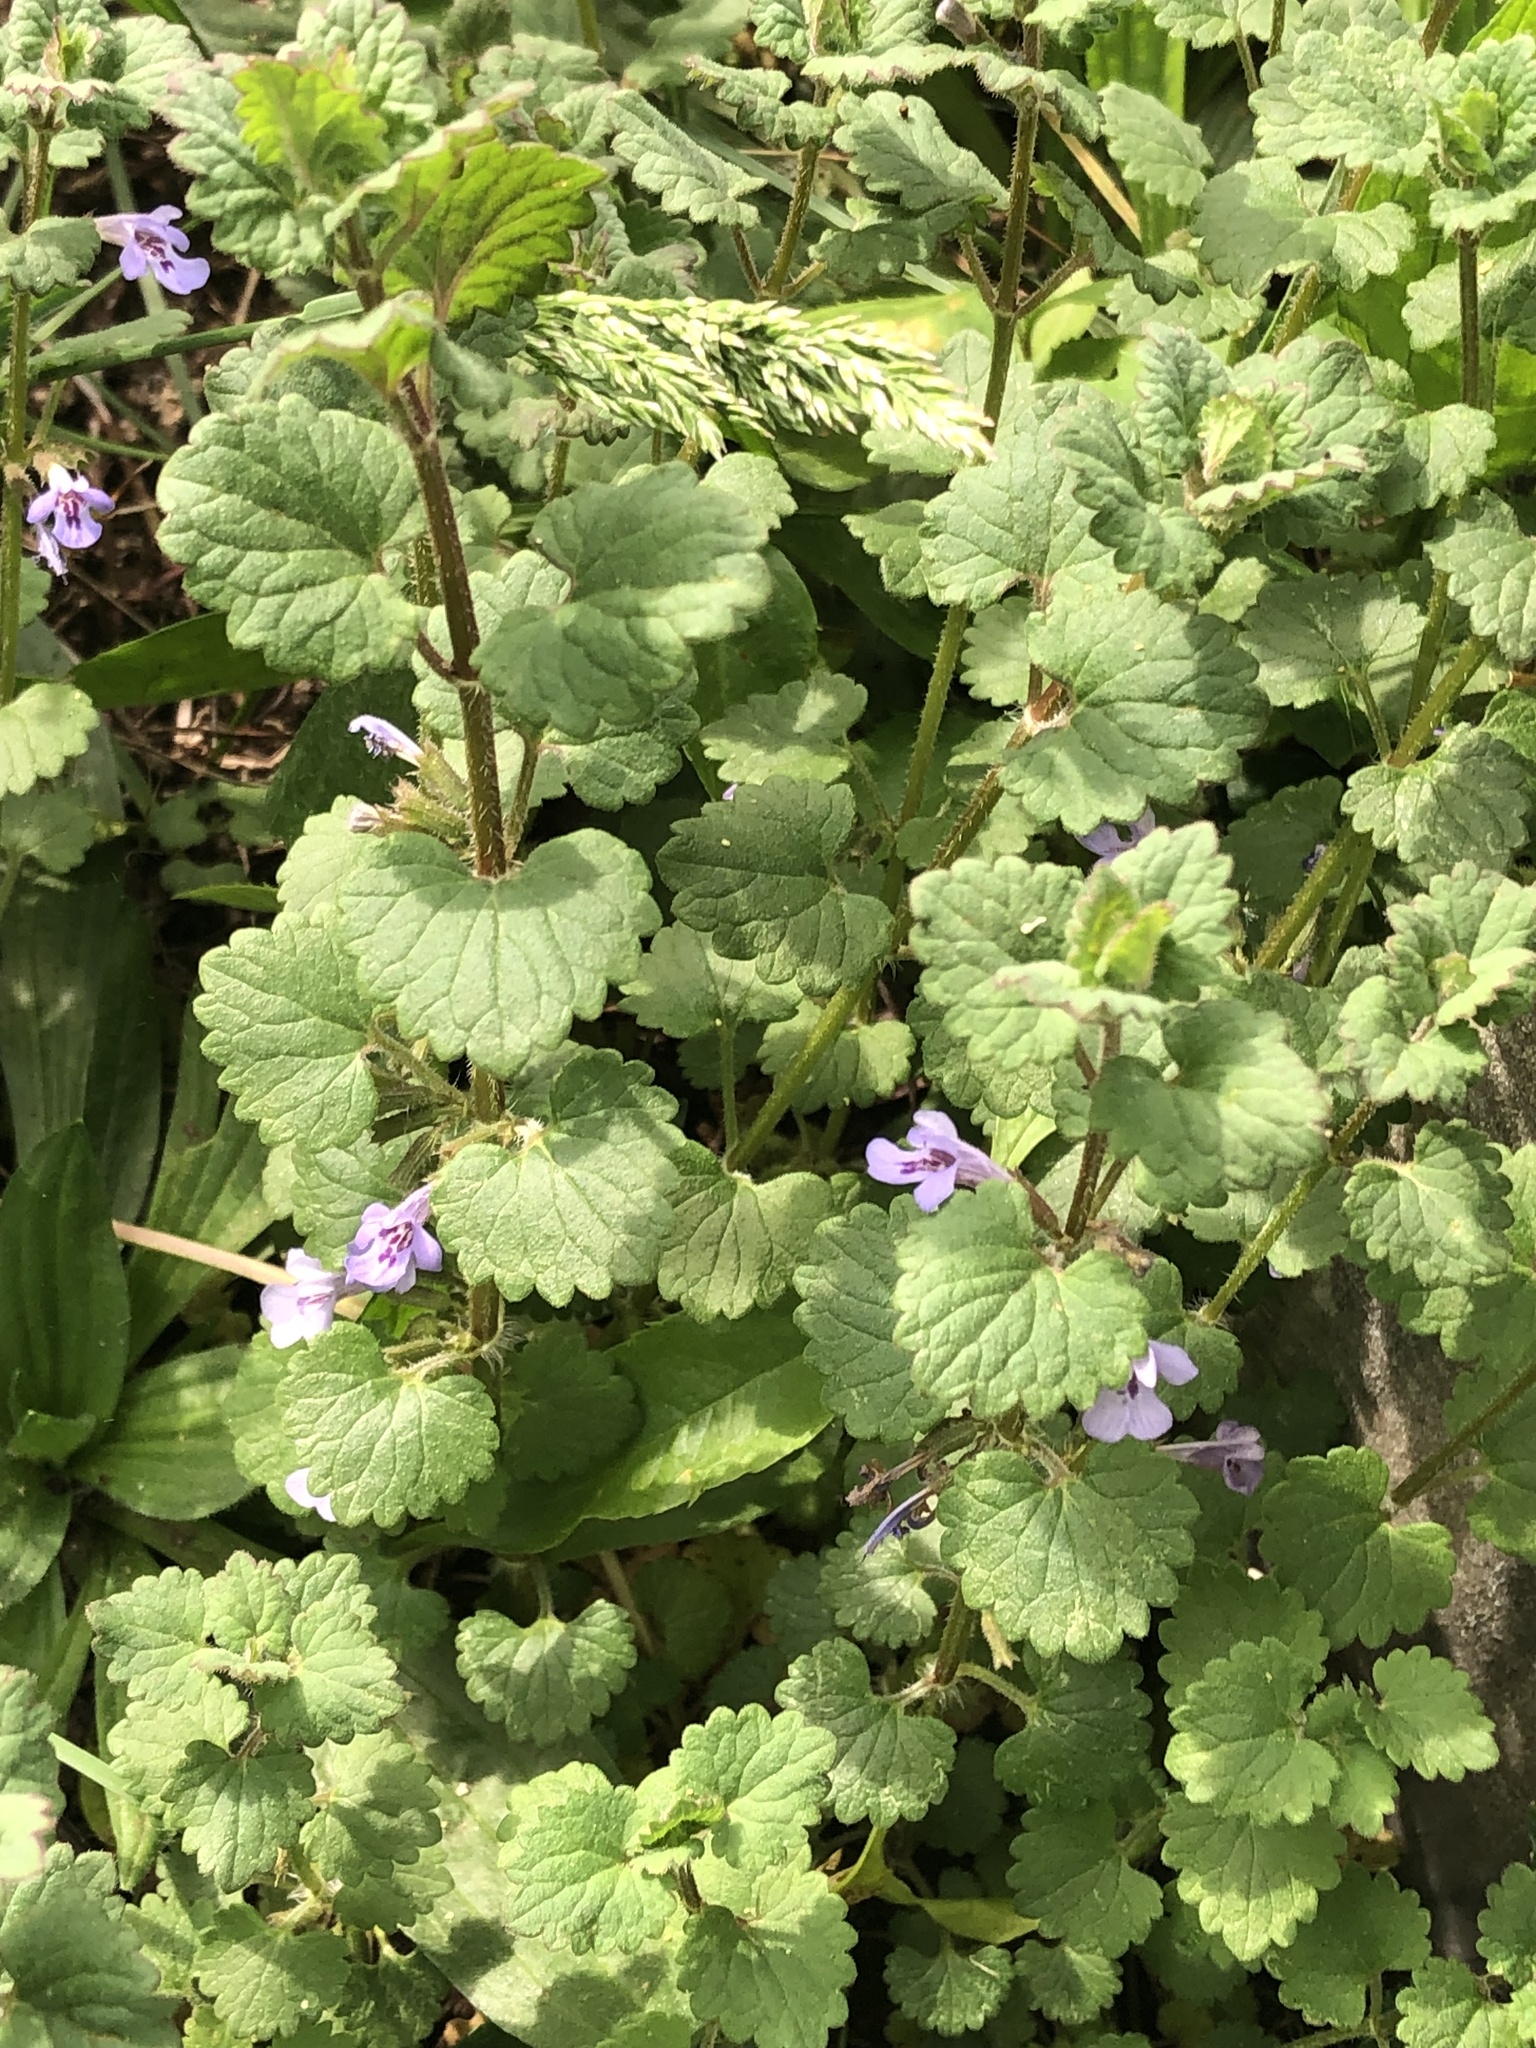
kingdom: Plantae
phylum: Tracheophyta
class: Magnoliopsida
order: Lamiales
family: Lamiaceae
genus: Glechoma
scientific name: Glechoma hederacea
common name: Ground ivy
